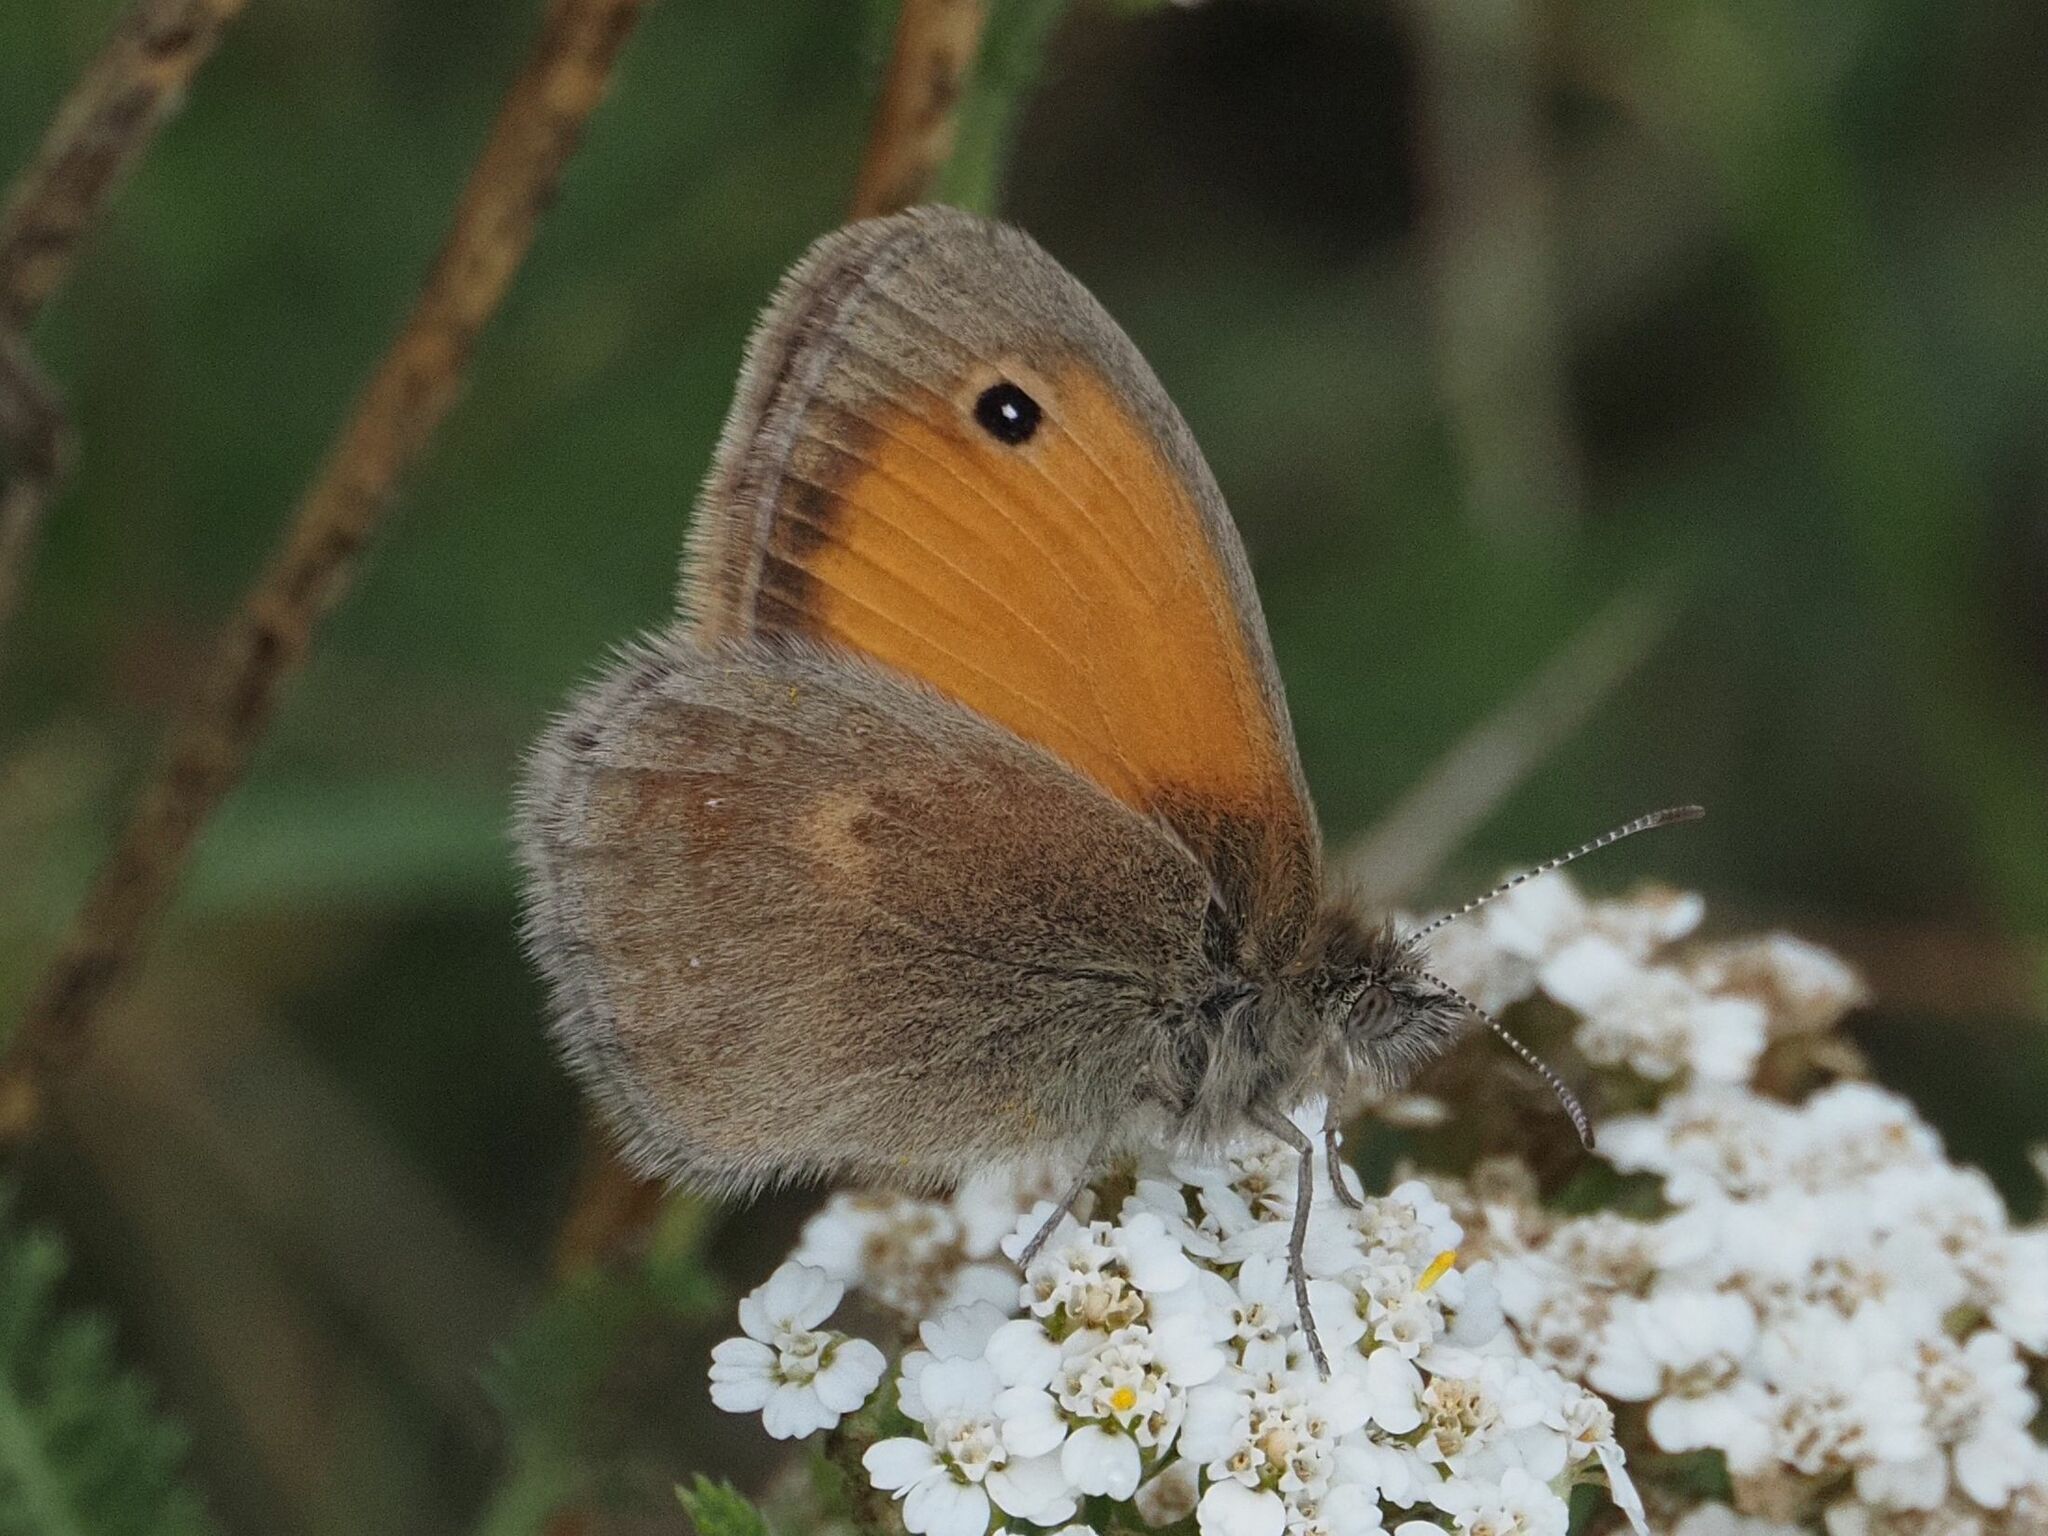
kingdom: Animalia
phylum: Arthropoda
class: Insecta
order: Lepidoptera
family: Nymphalidae
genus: Coenonympha
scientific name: Coenonympha pamphilus
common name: Small heath
